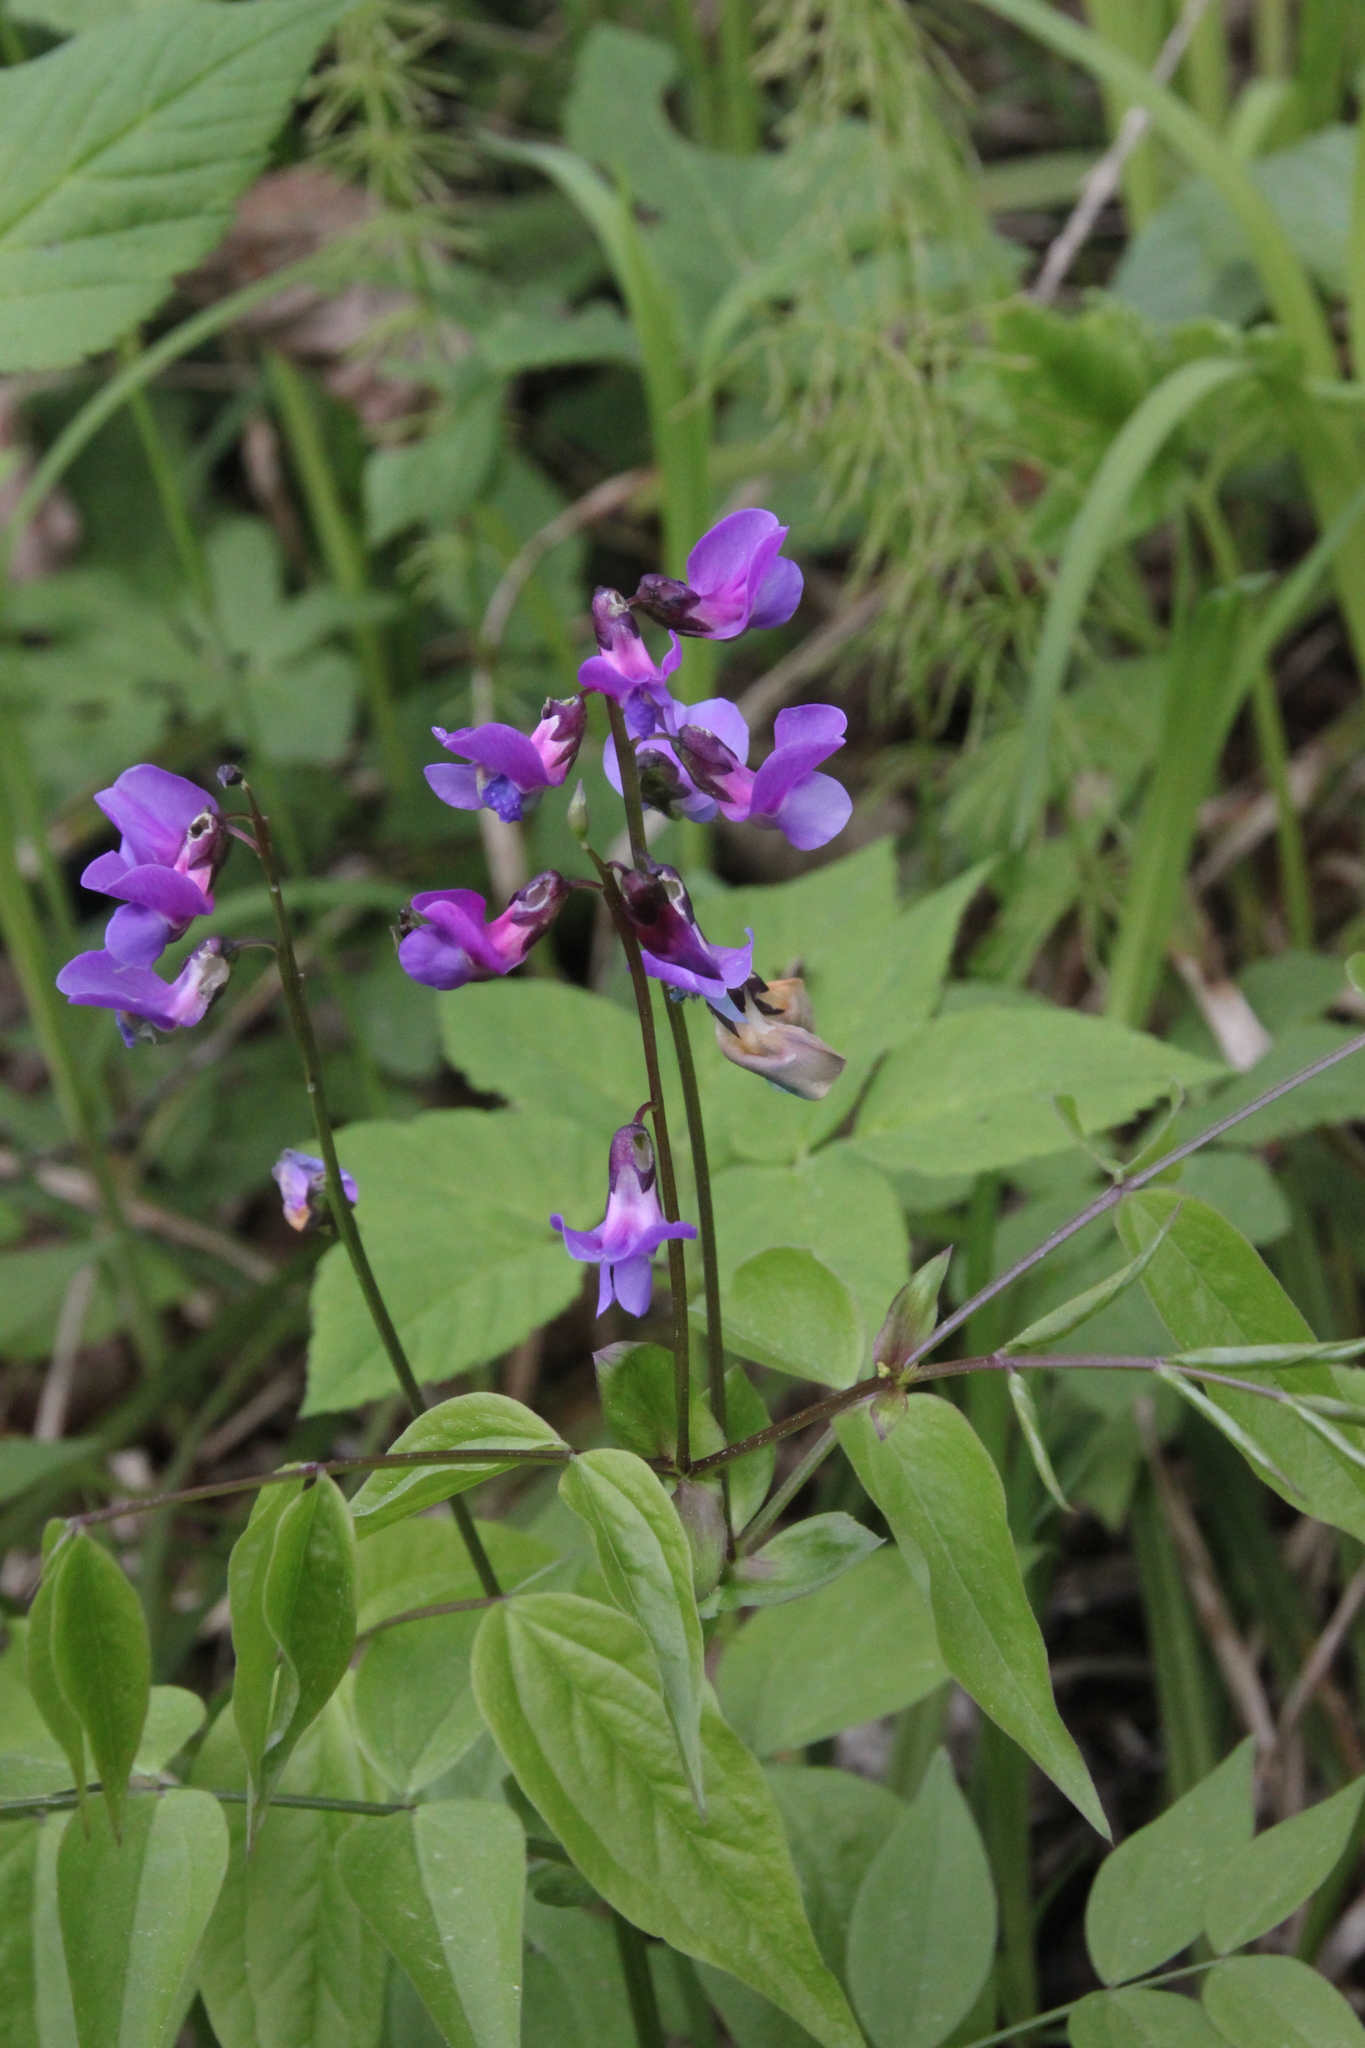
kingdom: Plantae
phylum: Tracheophyta
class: Magnoliopsida
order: Fabales
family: Fabaceae
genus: Lathyrus
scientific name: Lathyrus vernus
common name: Spring pea
